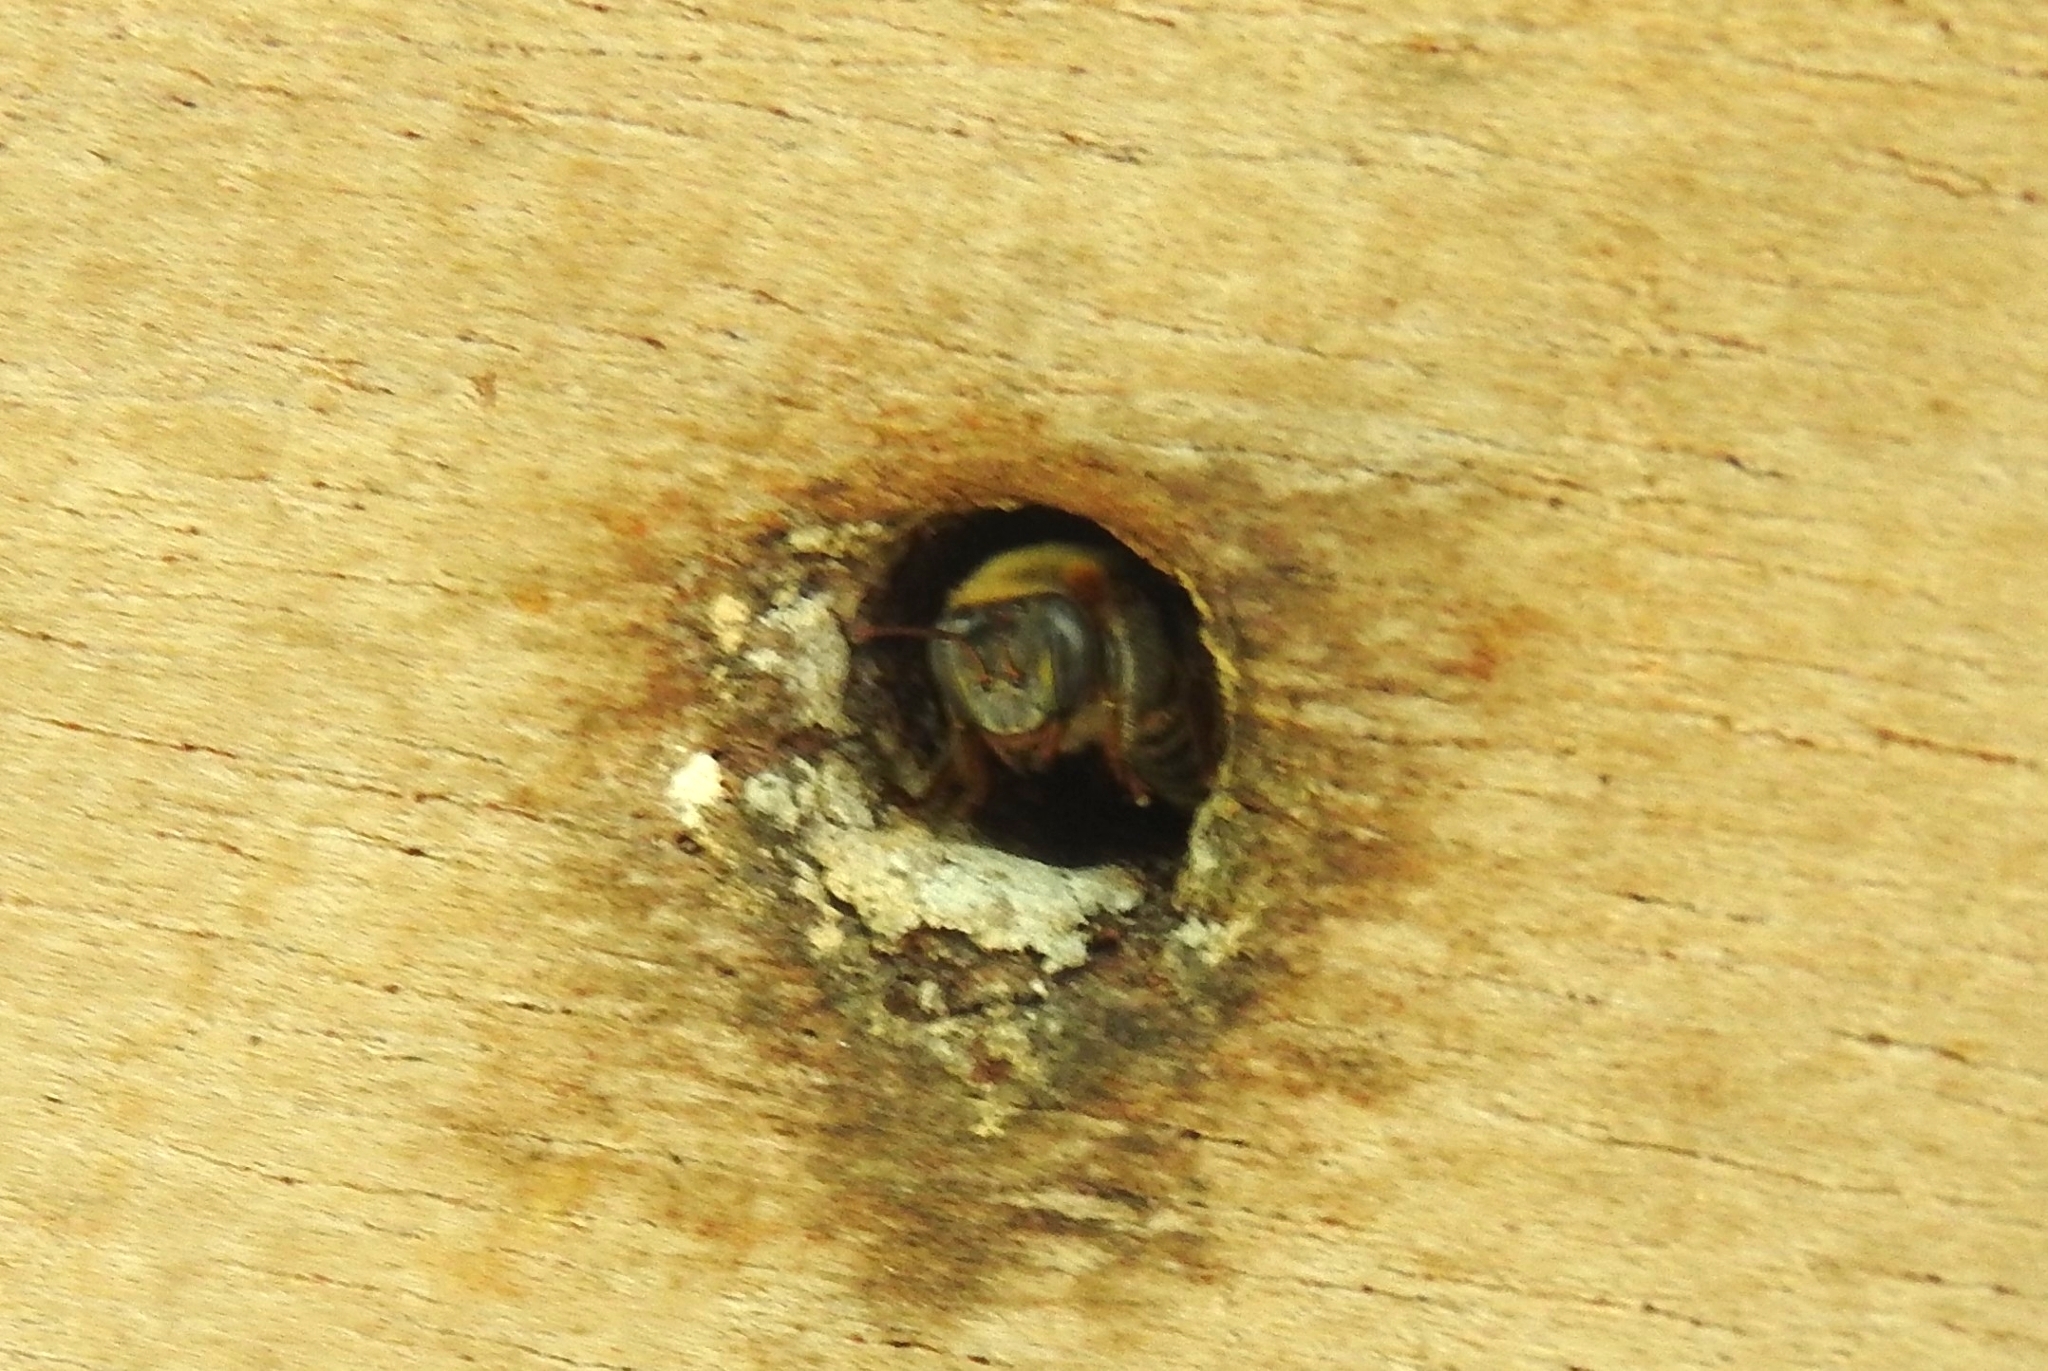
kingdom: Animalia
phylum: Arthropoda
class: Insecta
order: Hymenoptera
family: Apidae
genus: Melipona
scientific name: Melipona beecheii
